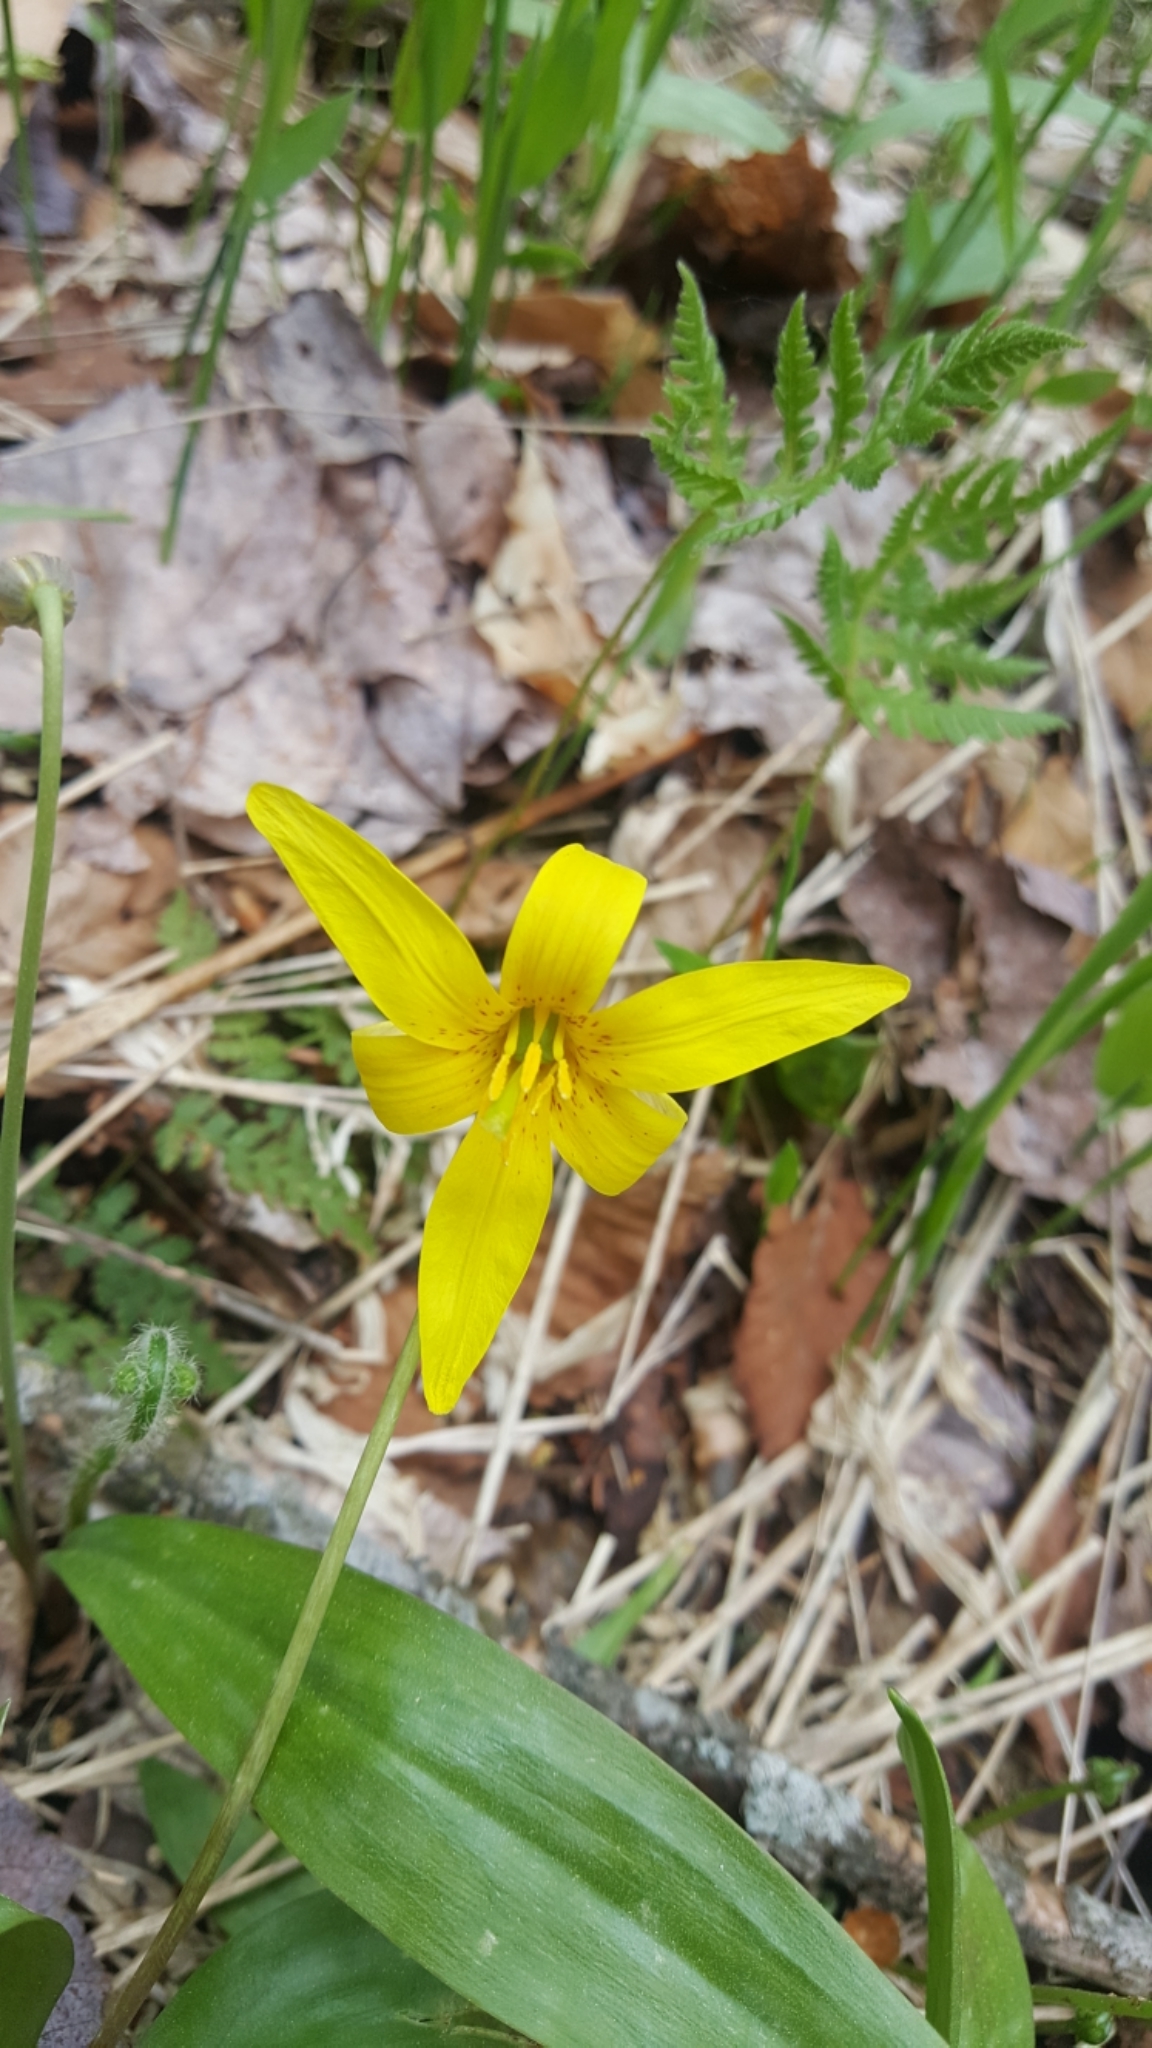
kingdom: Plantae
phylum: Tracheophyta
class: Liliopsida
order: Liliales
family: Liliaceae
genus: Erythronium
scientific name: Erythronium americanum
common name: Yellow adder's-tongue
